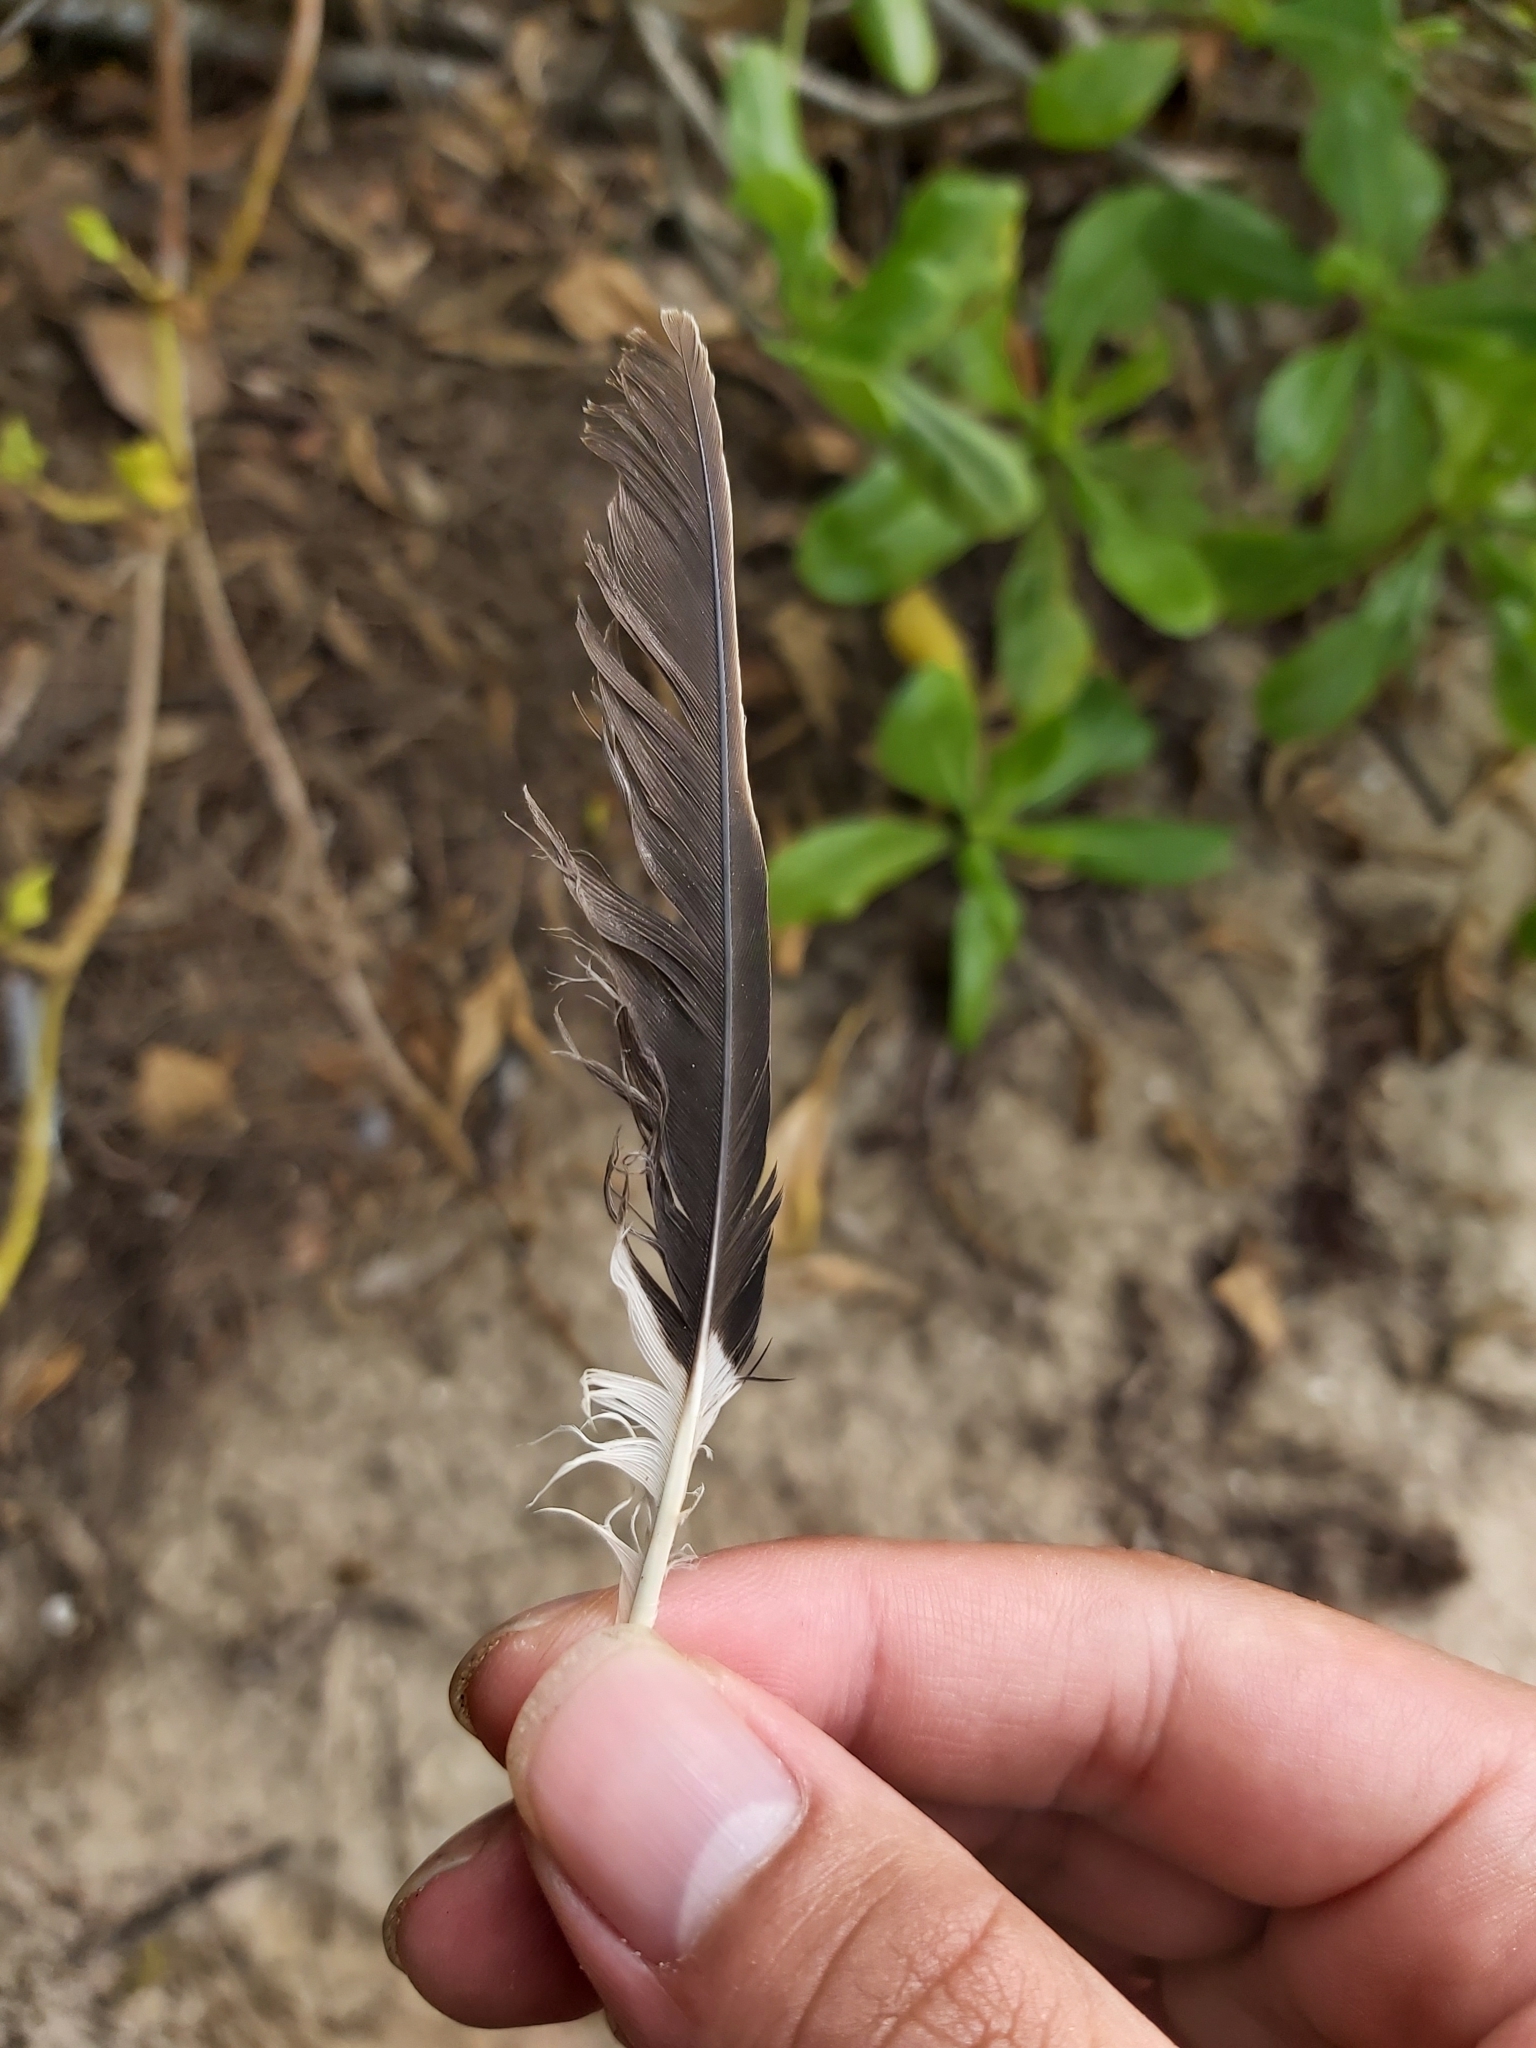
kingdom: Animalia
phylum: Chordata
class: Aves
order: Passeriformes
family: Sturnidae
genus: Acridotheres
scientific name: Acridotheres tristis
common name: Common myna
